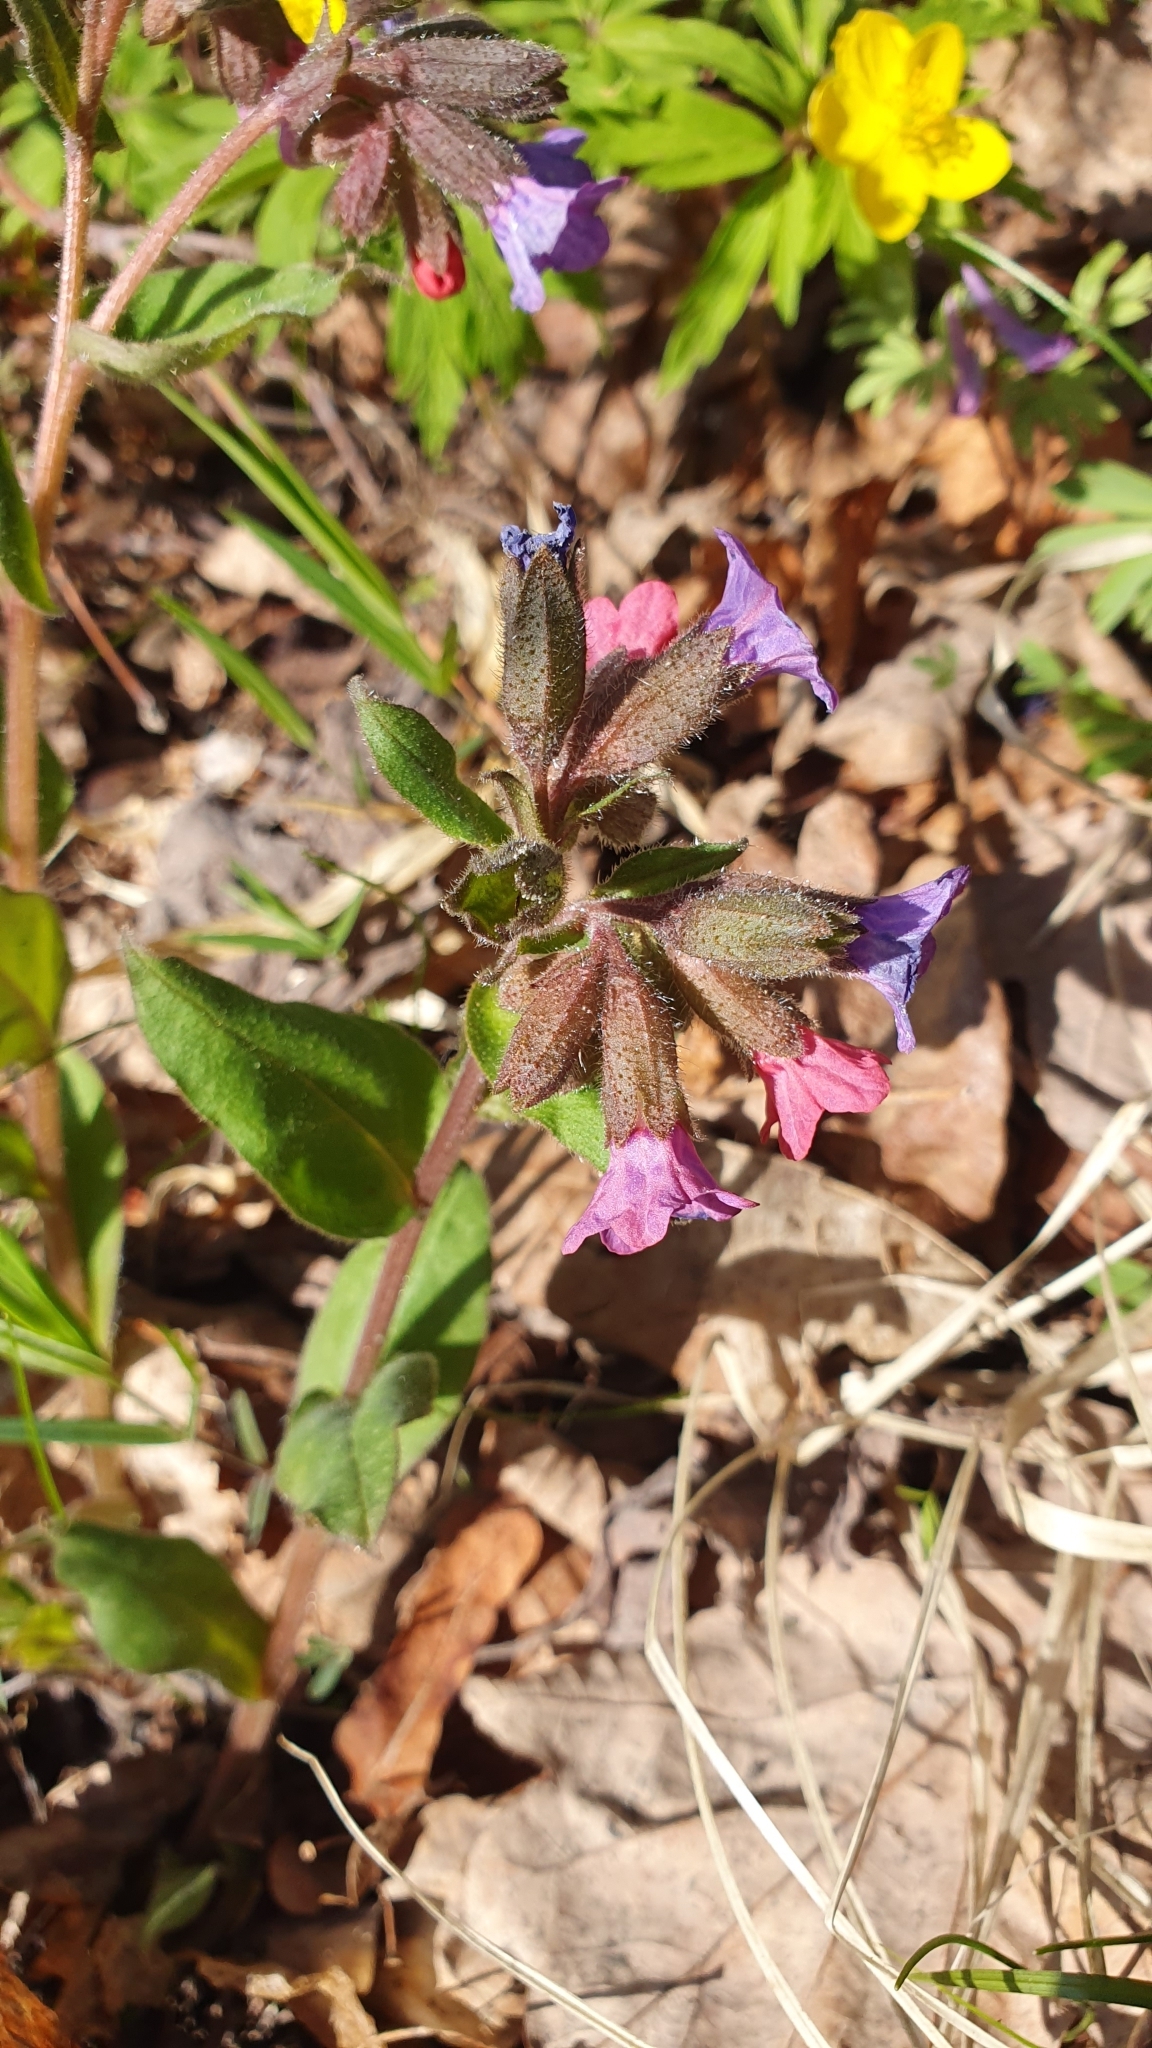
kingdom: Plantae
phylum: Tracheophyta
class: Magnoliopsida
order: Boraginales
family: Boraginaceae
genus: Pulmonaria
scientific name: Pulmonaria obscura
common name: Suffolk lungwort
